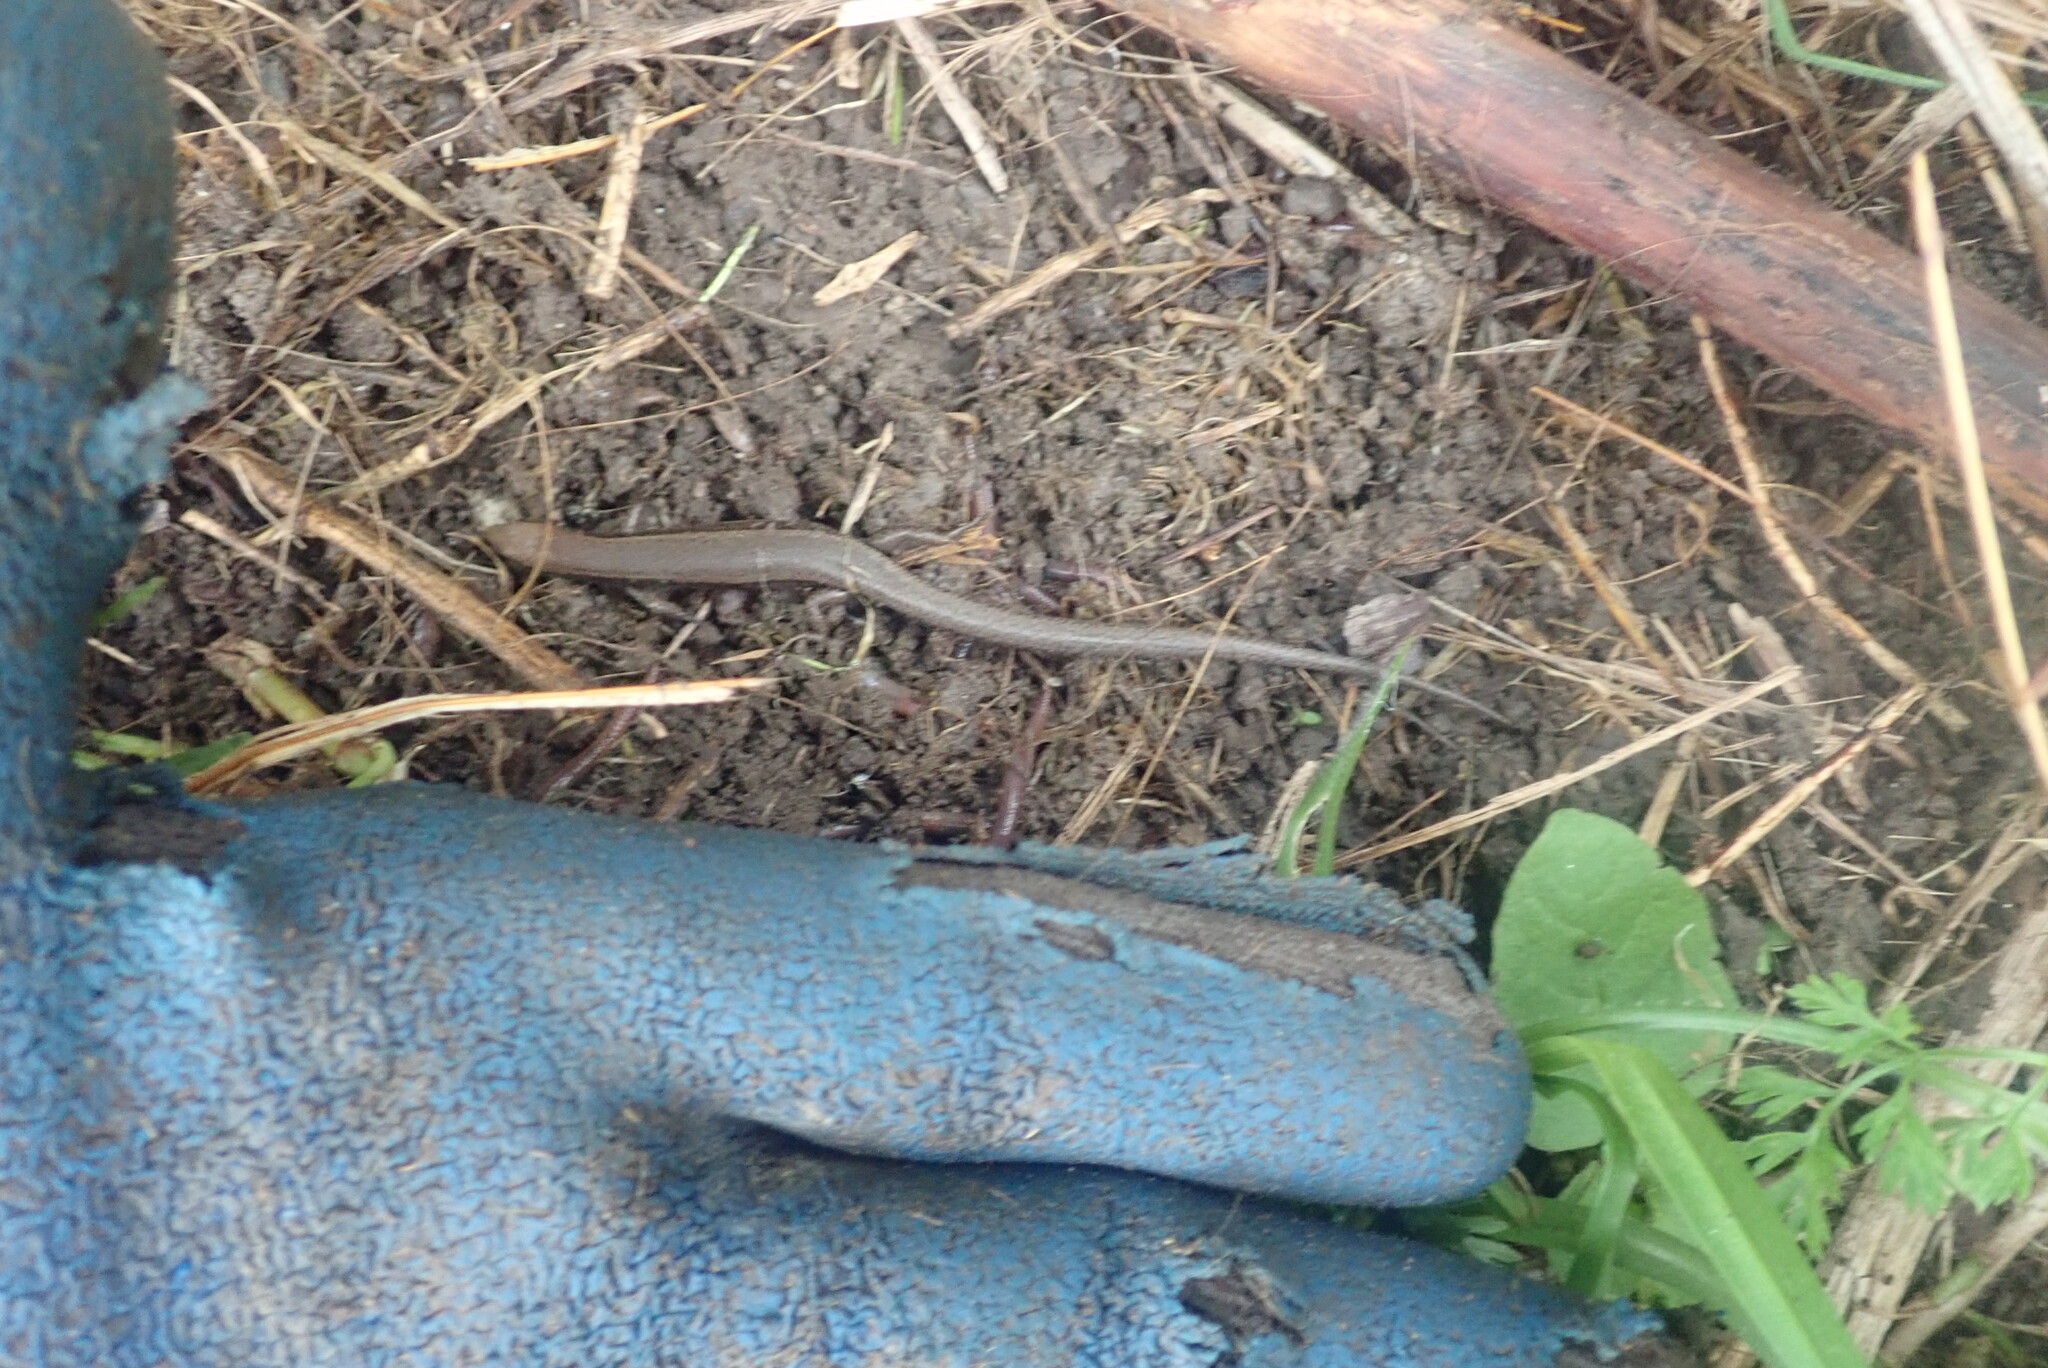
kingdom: Animalia
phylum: Chordata
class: Squamata
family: Scincidae
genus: Lampropholis
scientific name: Lampropholis delicata
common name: Plague skink
